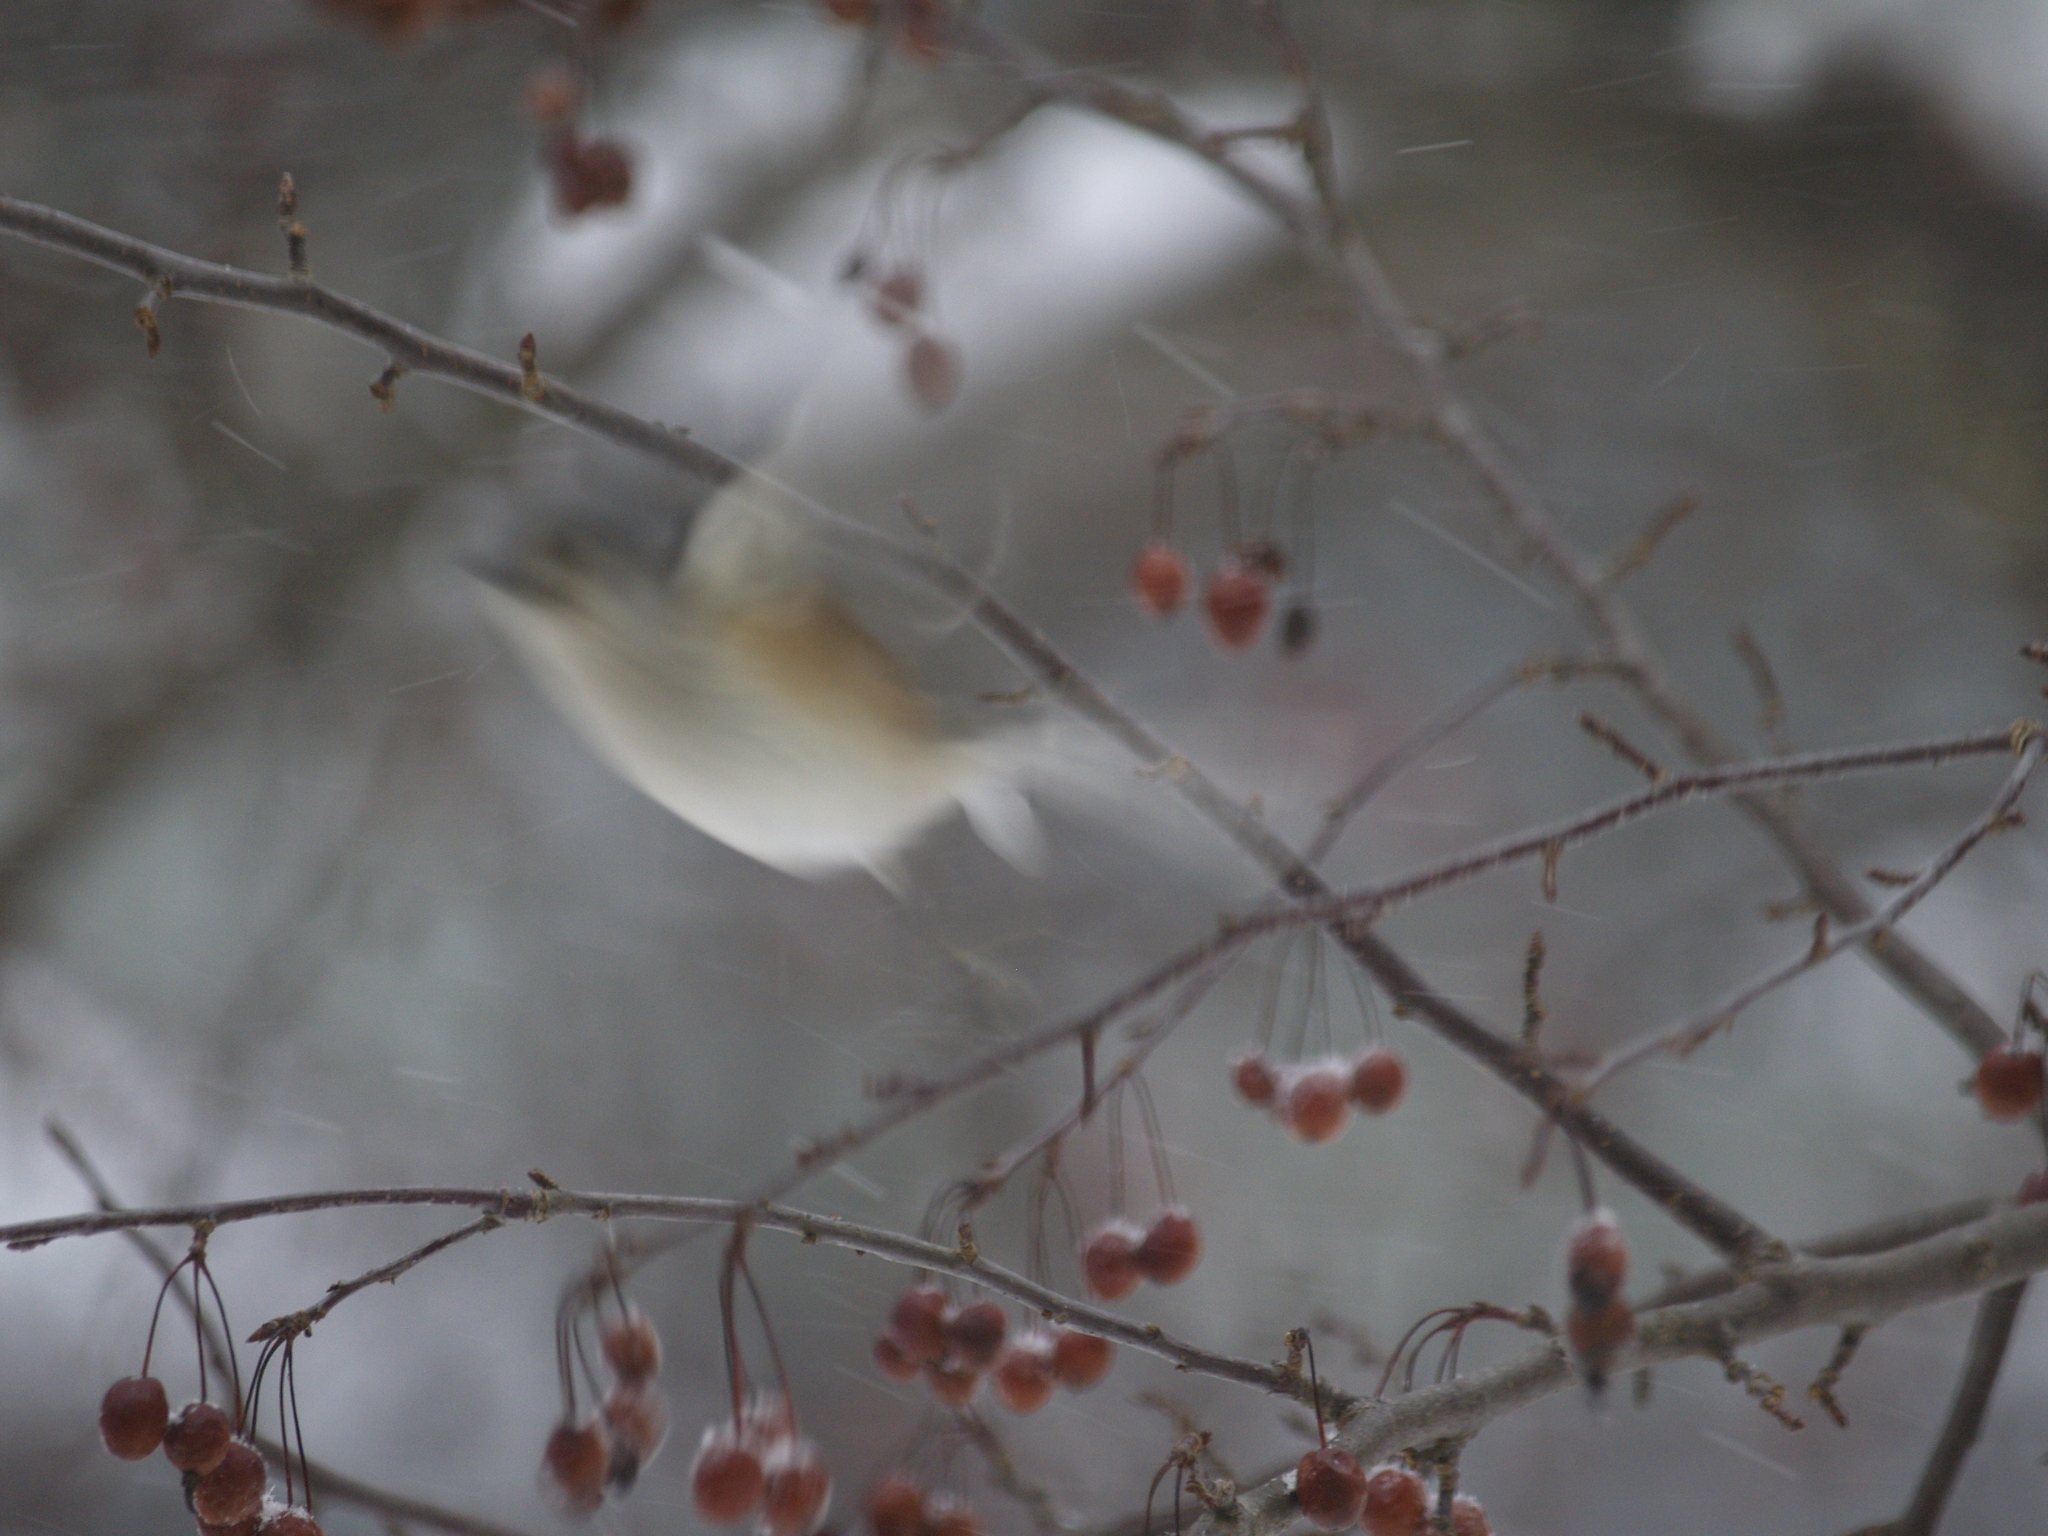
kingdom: Animalia
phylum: Chordata
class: Aves
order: Passeriformes
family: Paridae
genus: Baeolophus
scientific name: Baeolophus bicolor
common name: Tufted titmouse
